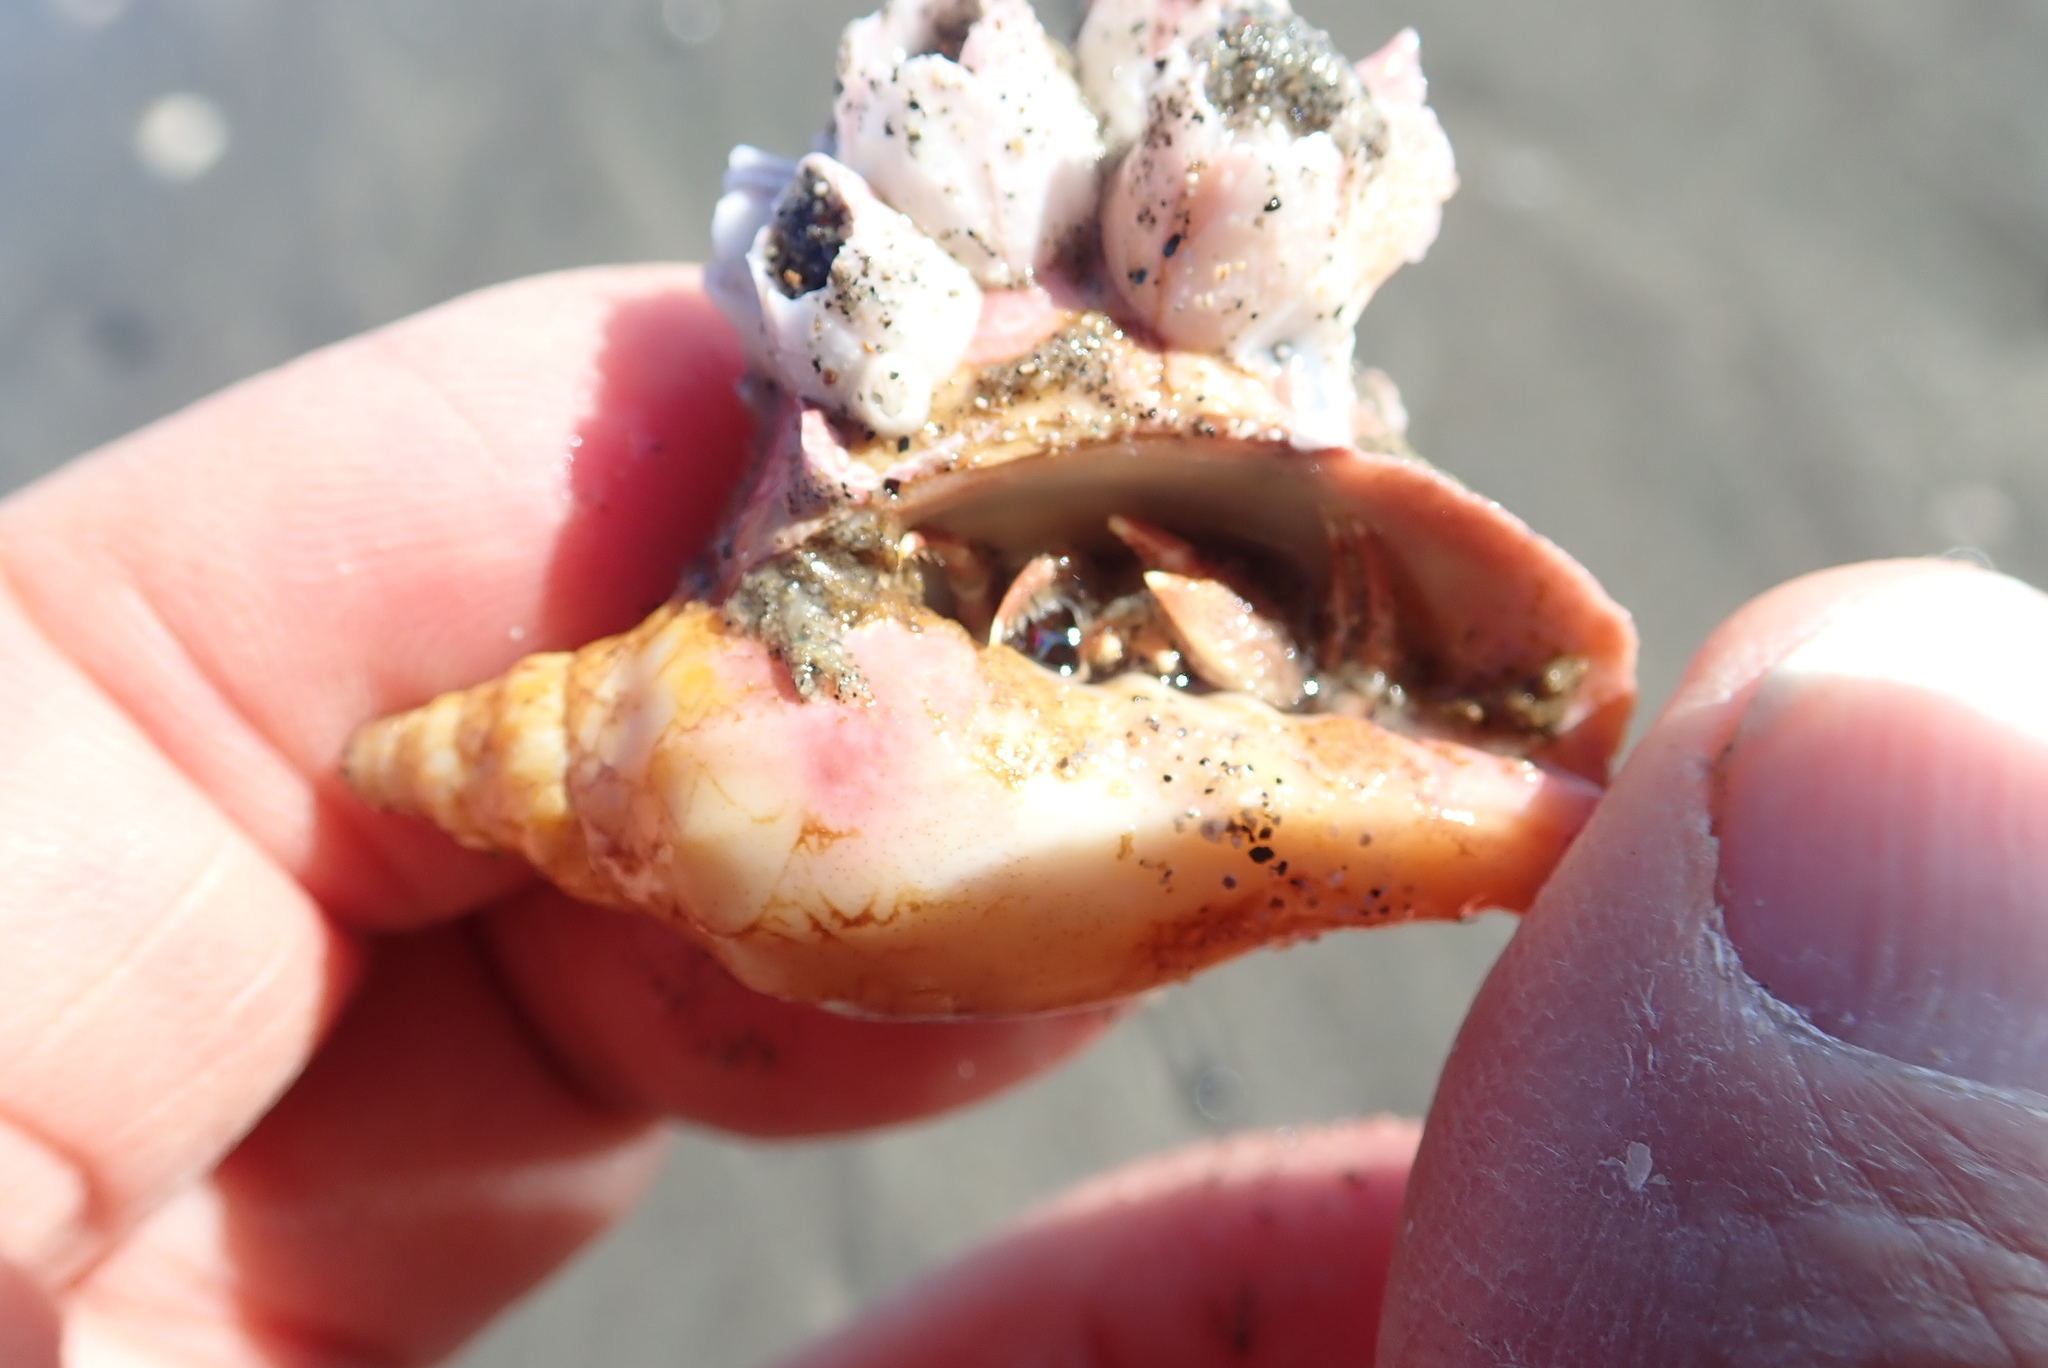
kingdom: Animalia
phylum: Mollusca
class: Gastropoda
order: Neogastropoda
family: Volutidae
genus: Alcithoe
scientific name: Alcithoe fusus
